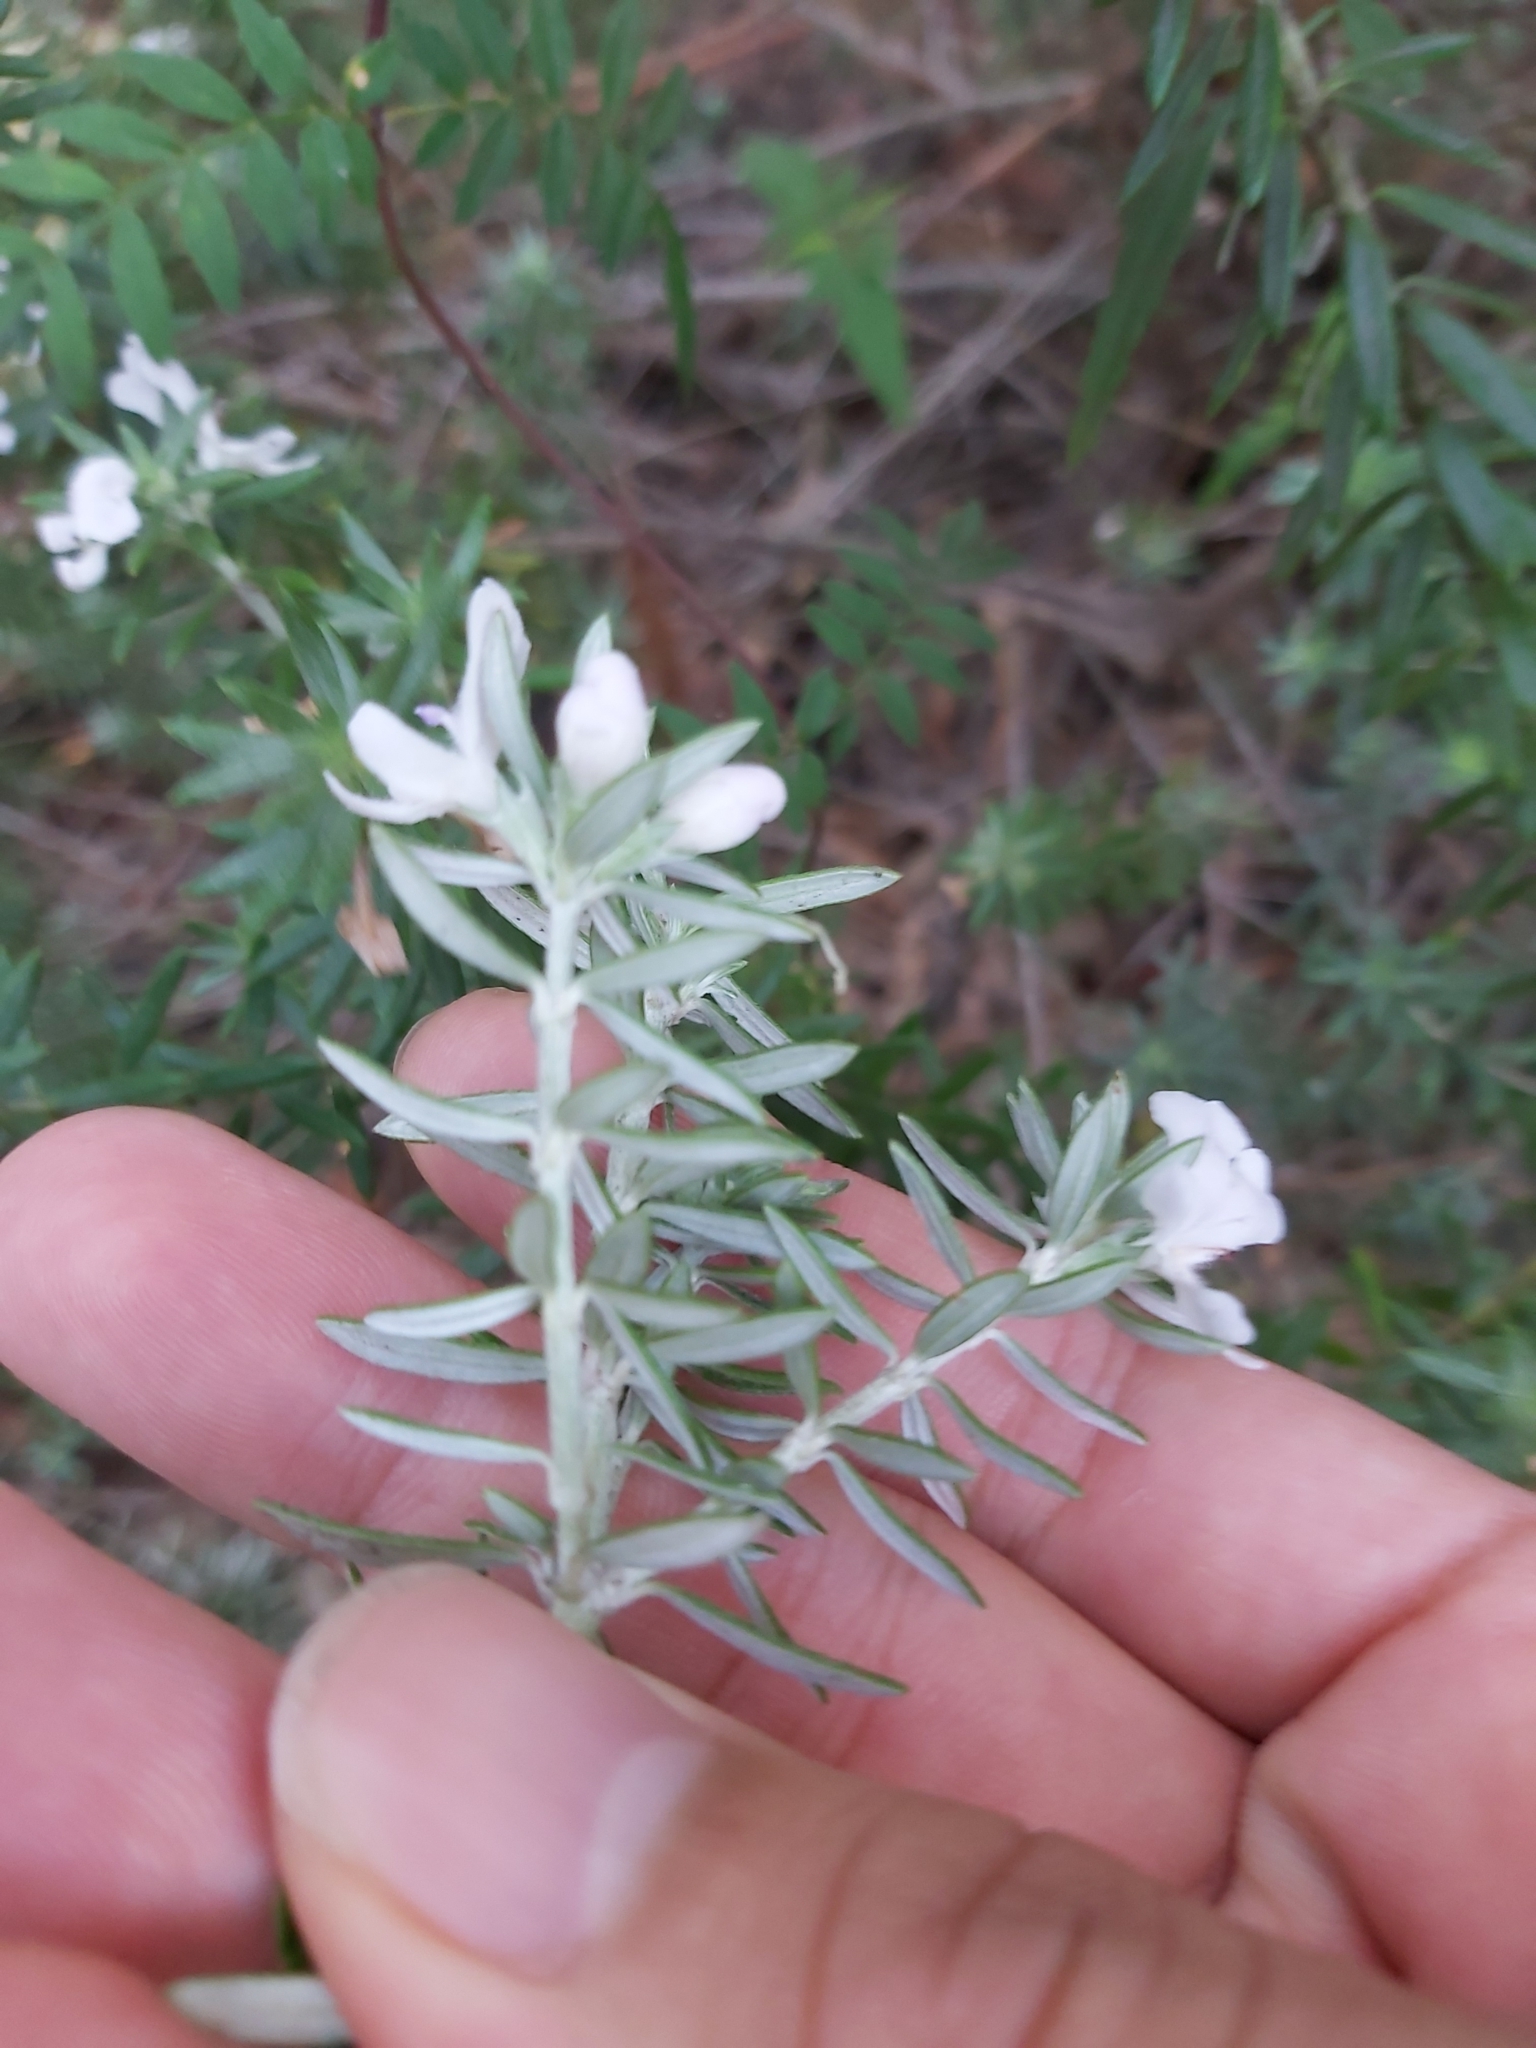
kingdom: Plantae
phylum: Tracheophyta
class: Magnoliopsida
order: Lamiales
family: Lamiaceae
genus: Westringia
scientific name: Westringia fruticosa
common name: Coastal-rosemary
